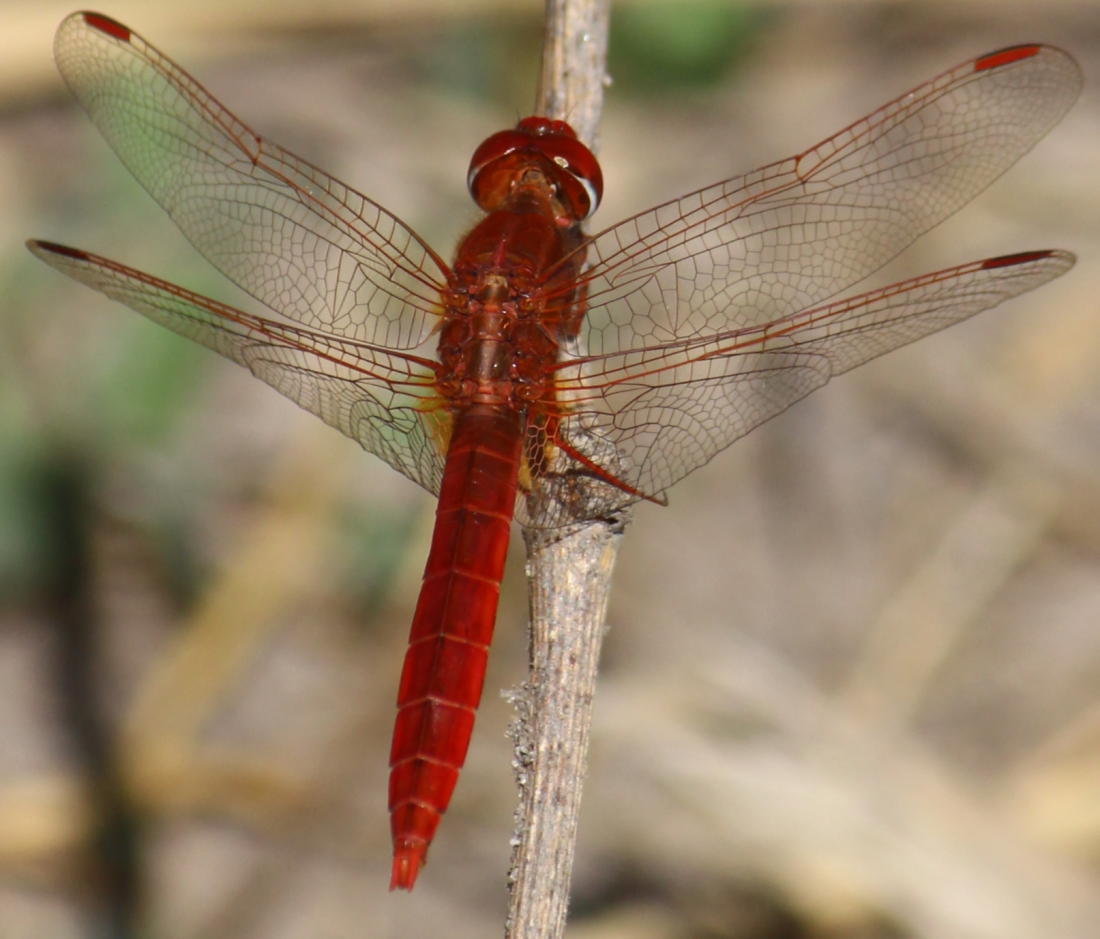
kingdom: Animalia
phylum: Arthropoda
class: Insecta
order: Odonata
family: Libellulidae
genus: Crocothemis
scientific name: Crocothemis erythraea
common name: Scarlet dragonfly
